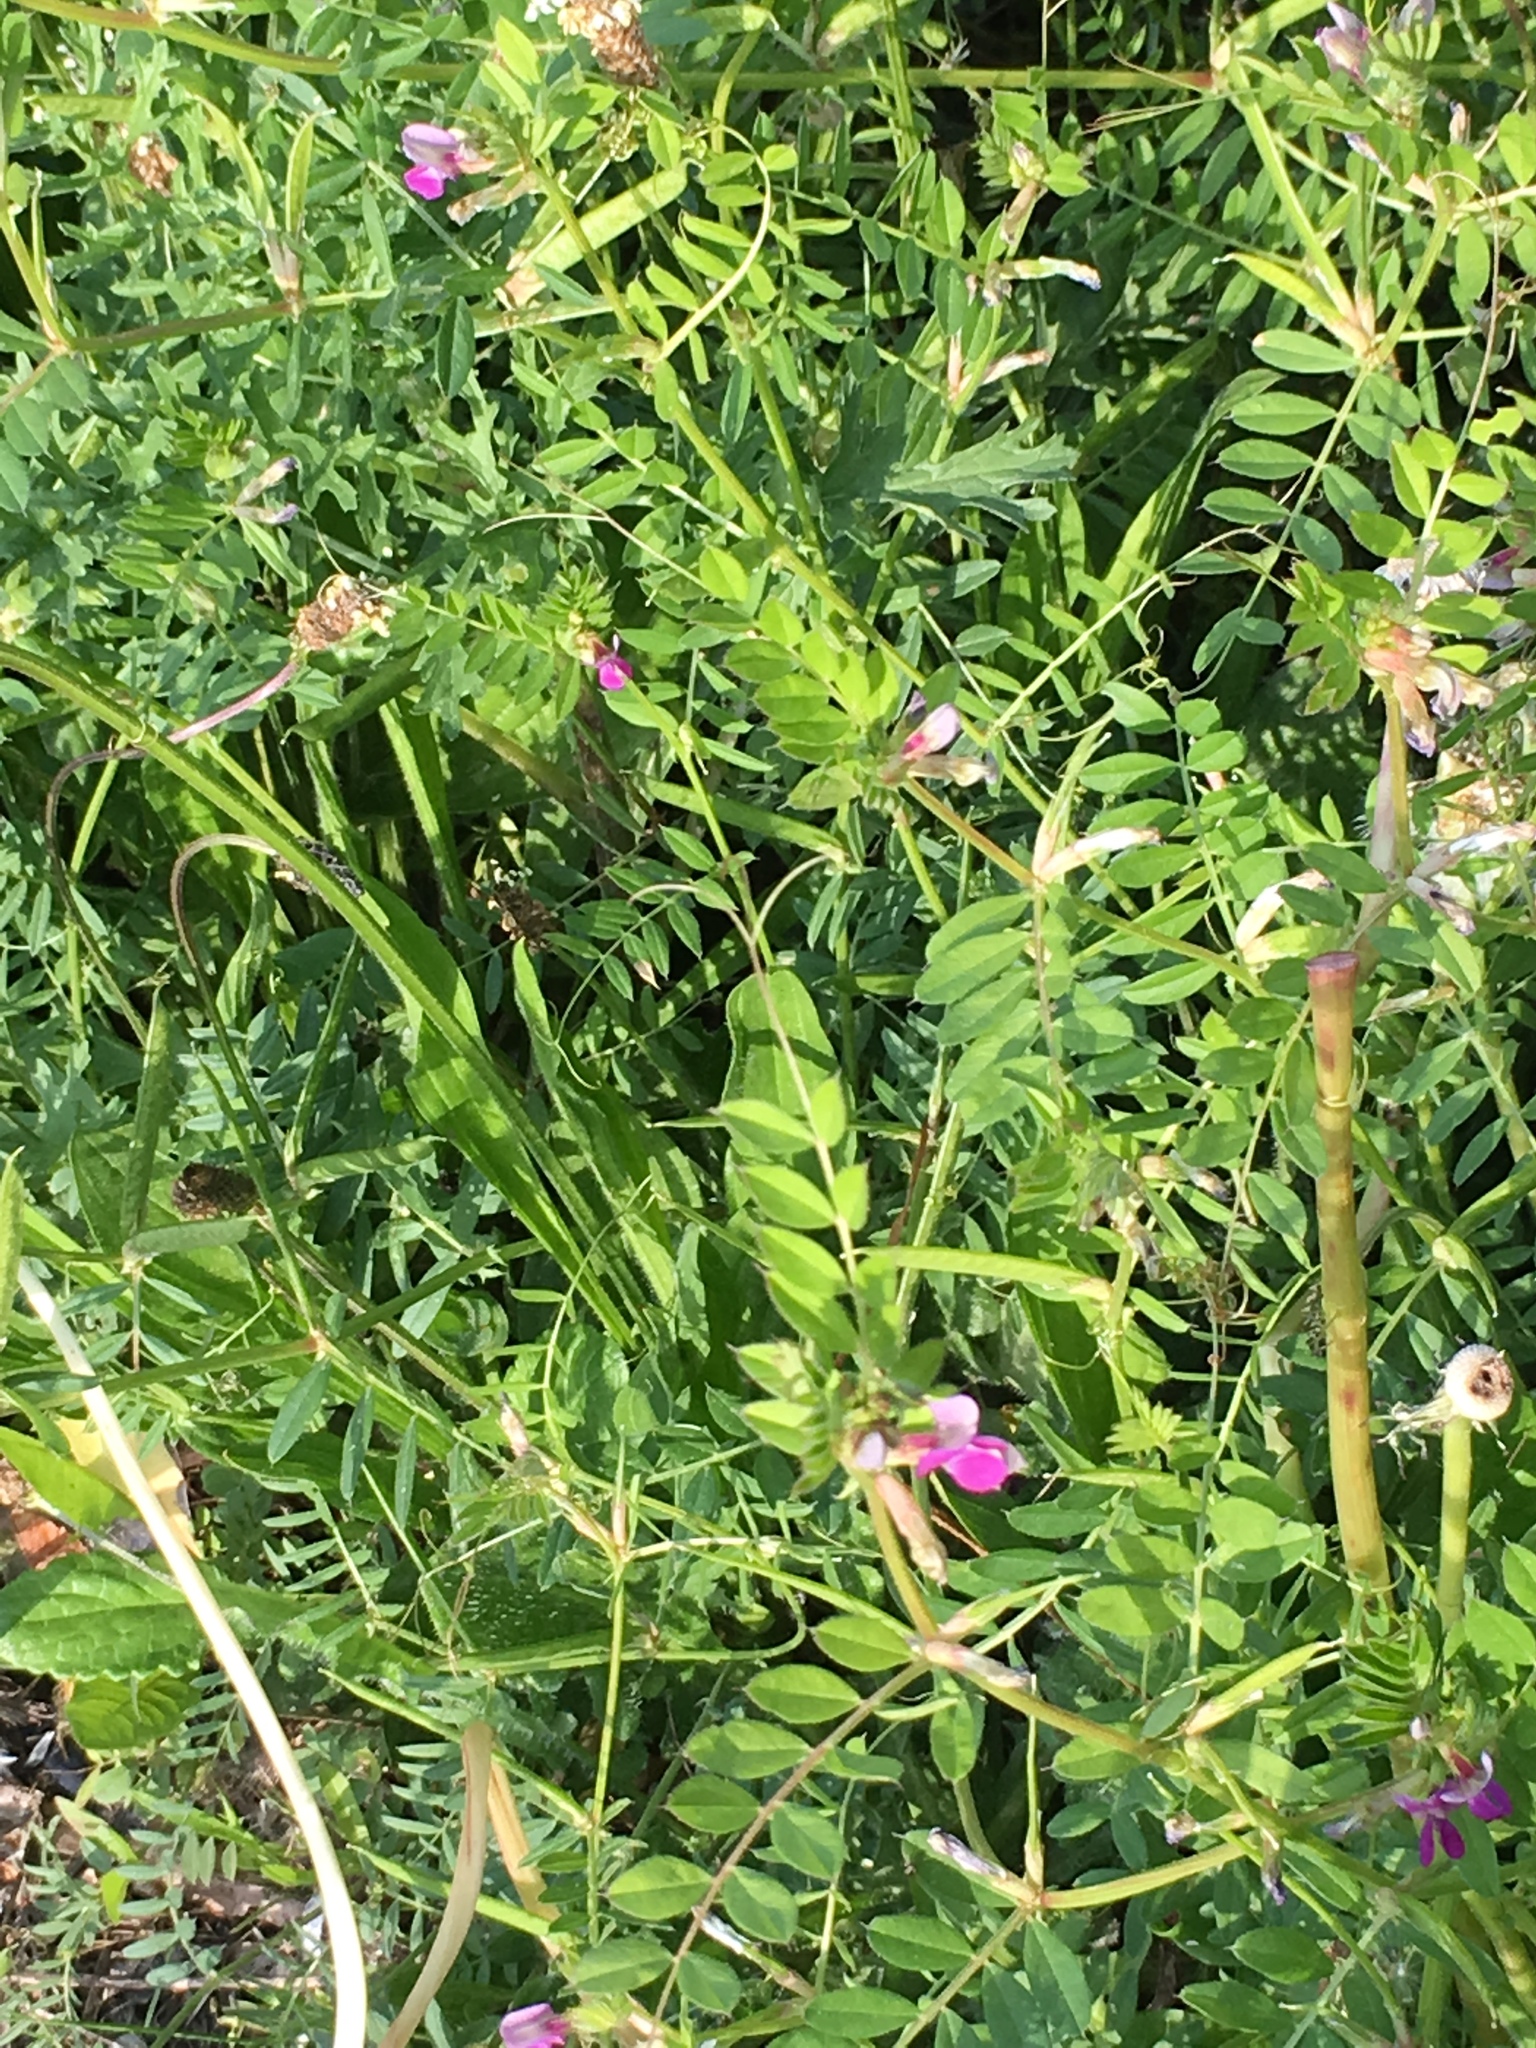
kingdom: Plantae
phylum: Tracheophyta
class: Magnoliopsida
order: Fabales
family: Fabaceae
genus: Vicia
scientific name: Vicia sativa
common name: Garden vetch
